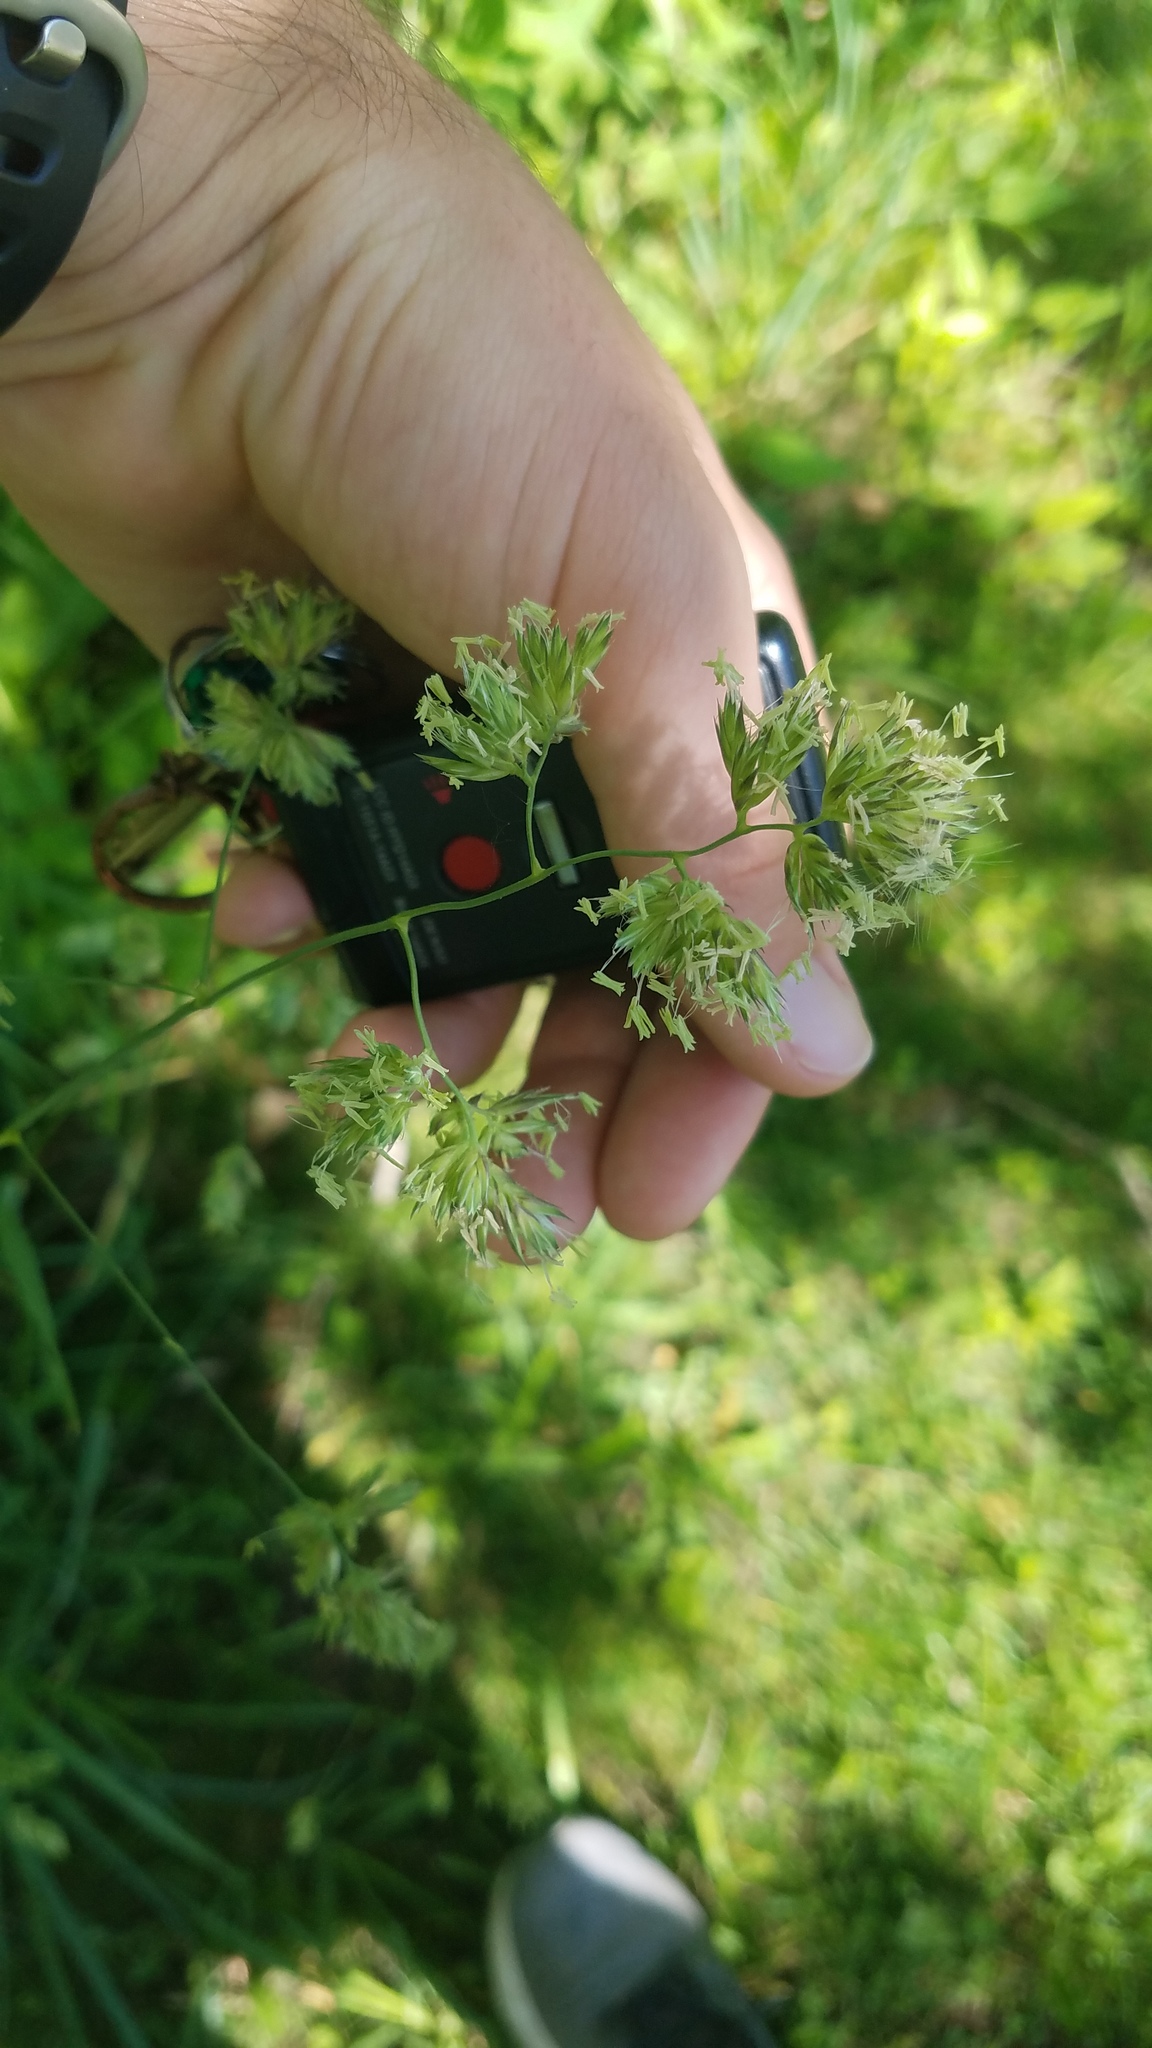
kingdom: Plantae
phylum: Tracheophyta
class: Liliopsida
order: Poales
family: Poaceae
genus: Dactylis
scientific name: Dactylis glomerata
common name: Orchardgrass
